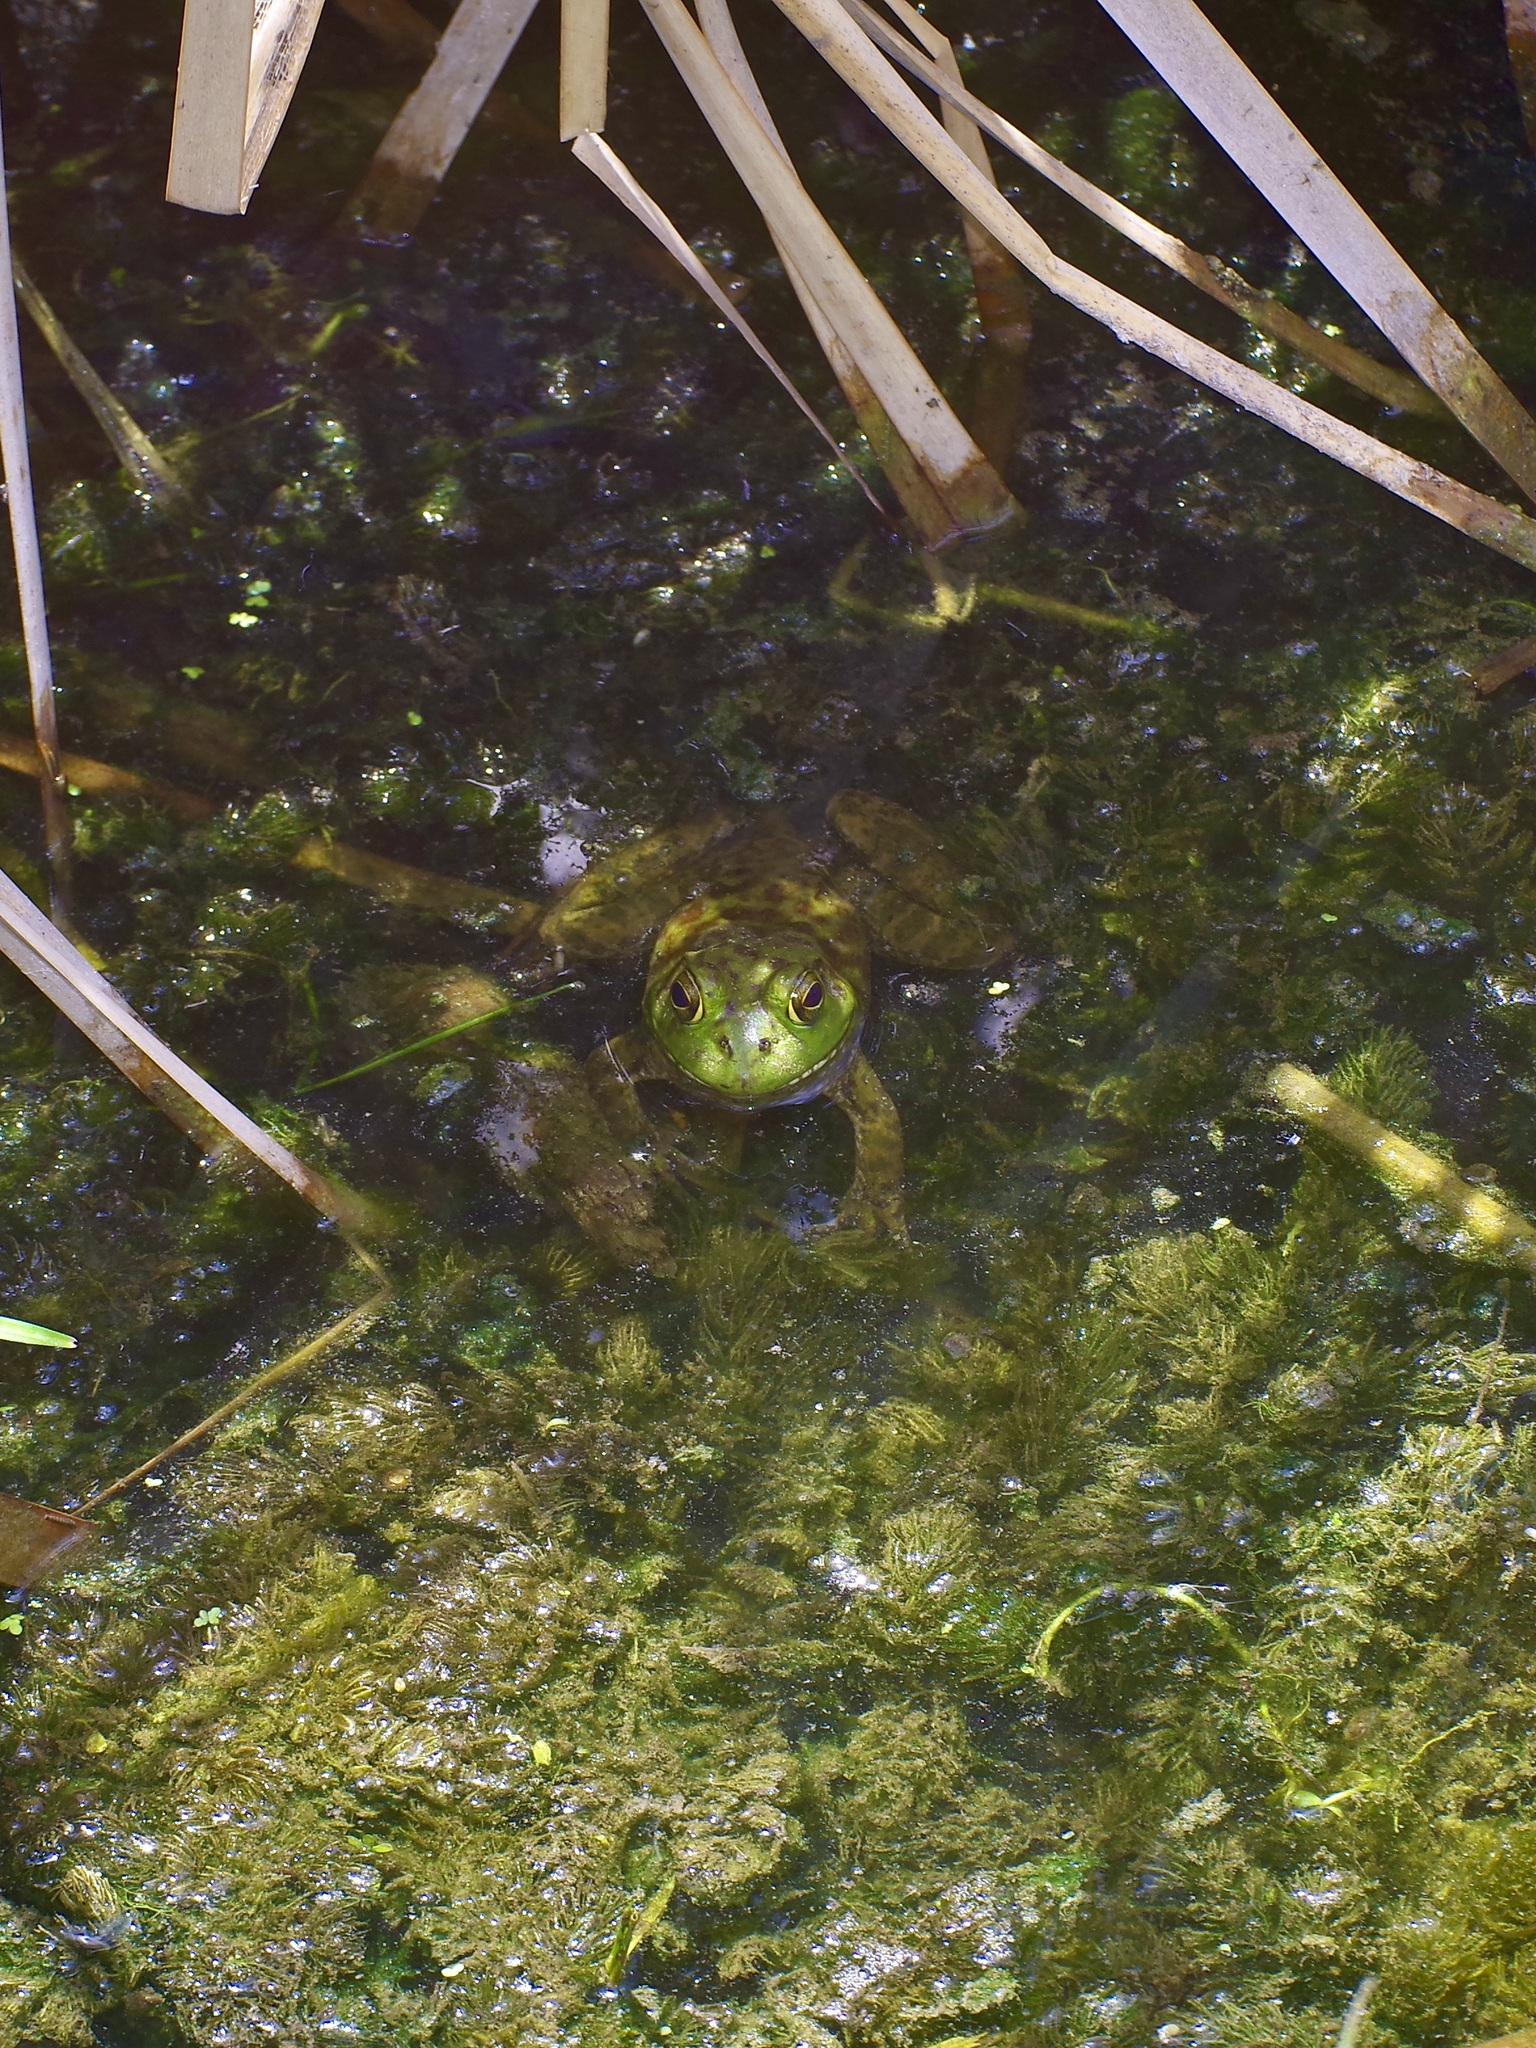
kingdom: Animalia
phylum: Chordata
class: Amphibia
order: Anura
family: Ranidae
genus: Lithobates
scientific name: Lithobates catesbeianus
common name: American bullfrog
